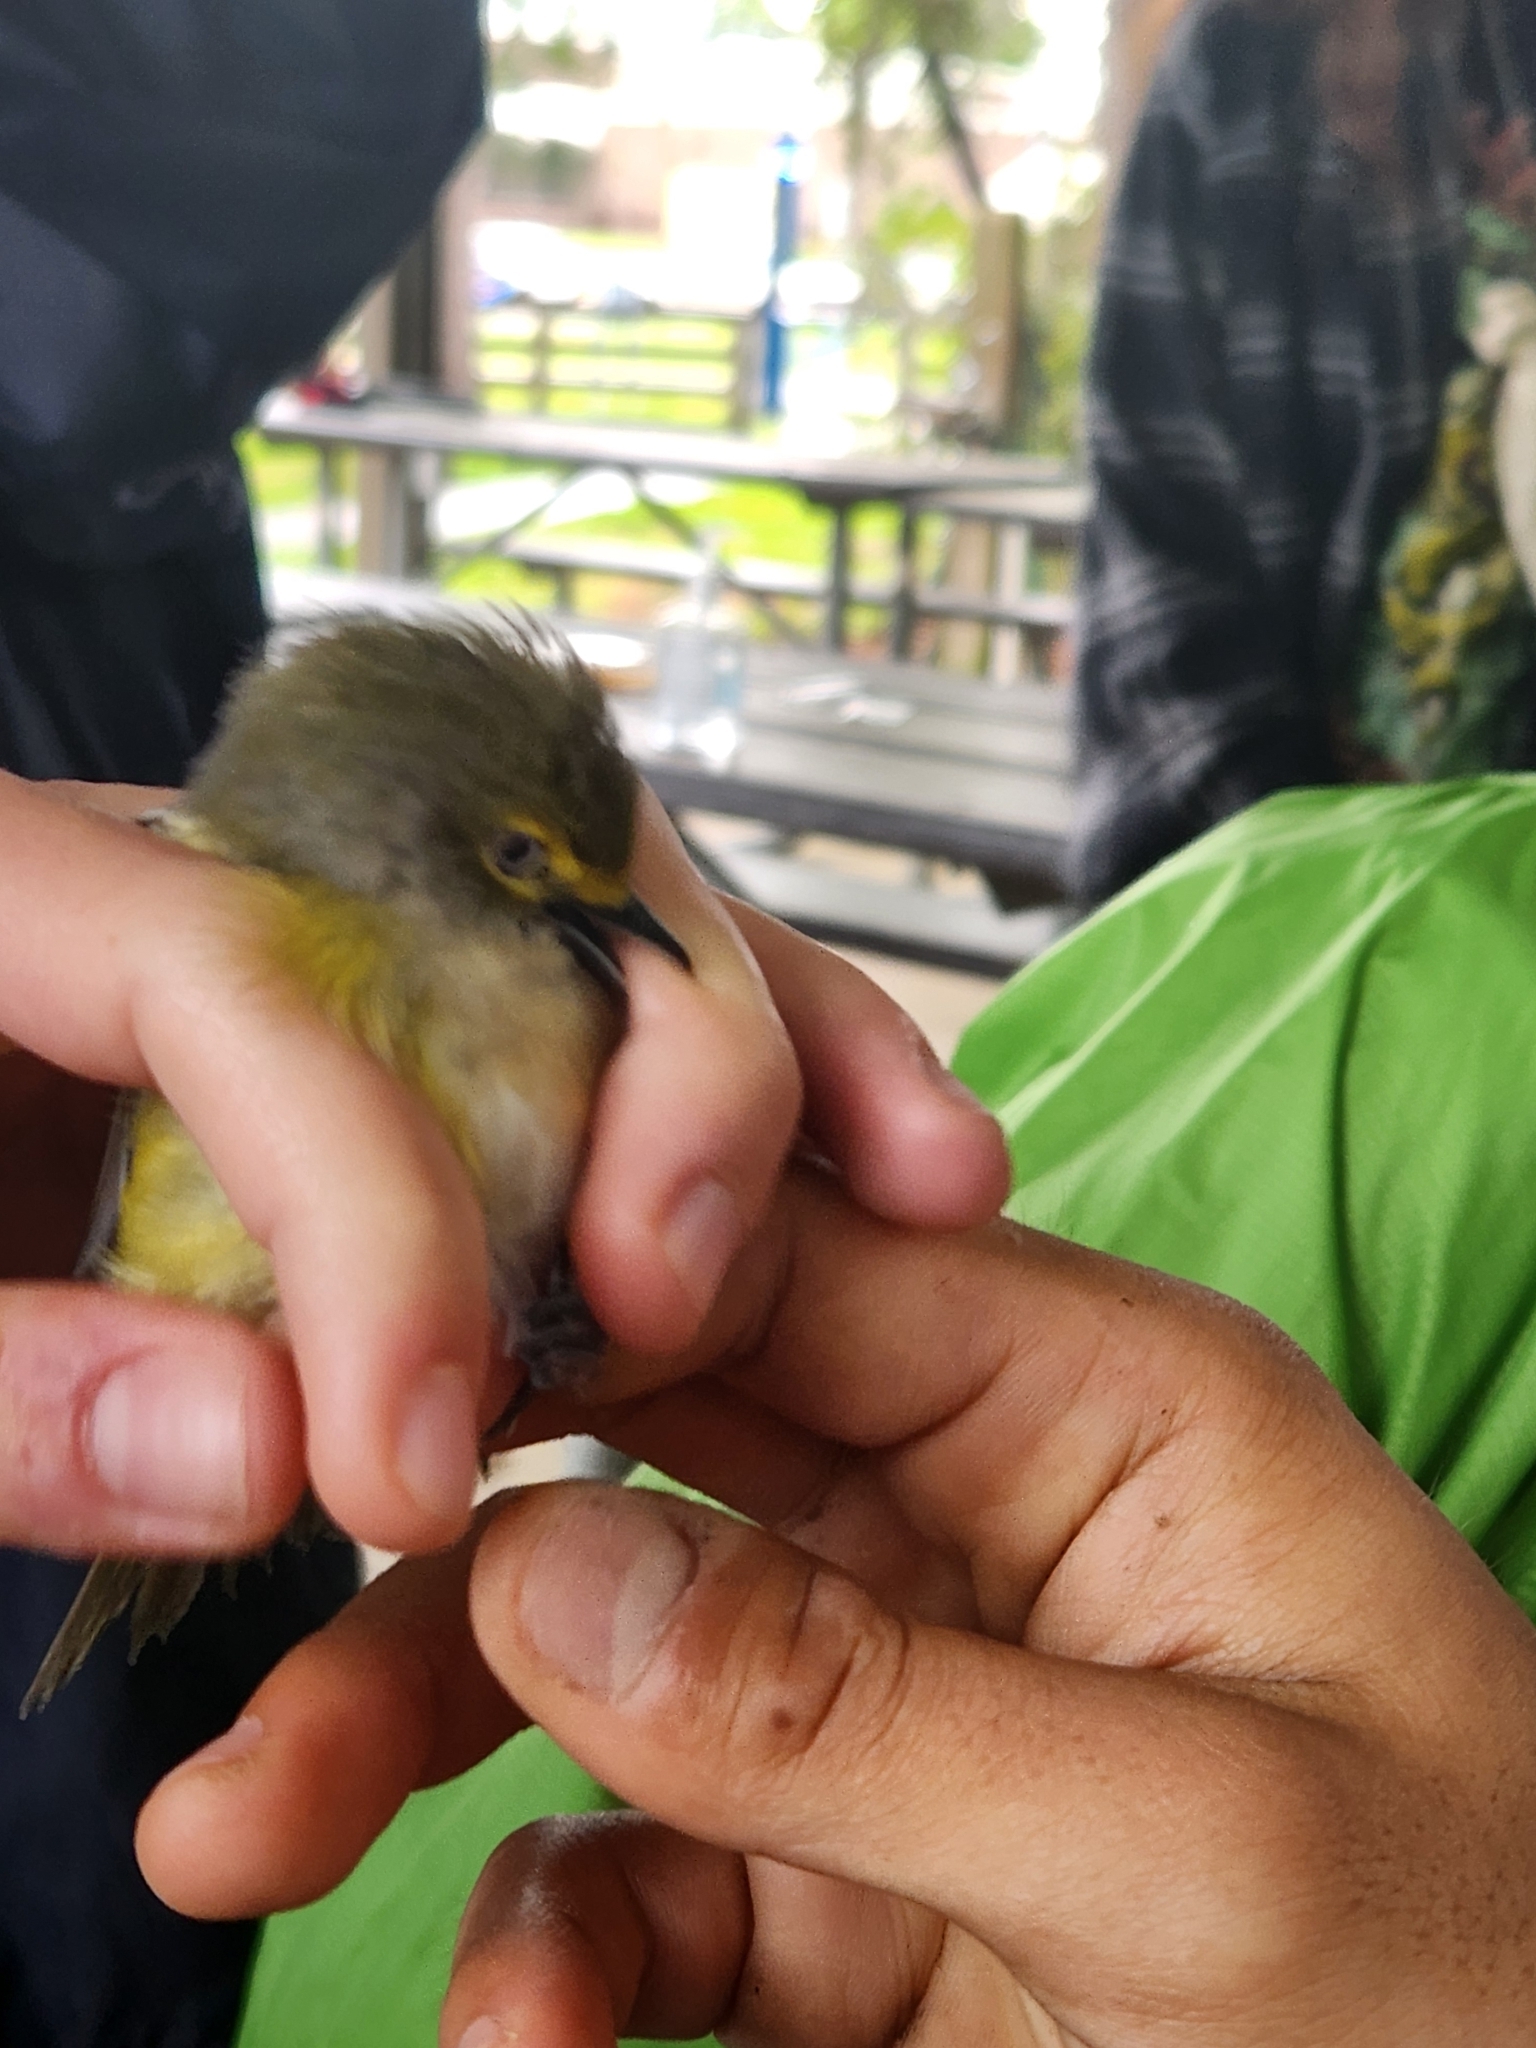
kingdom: Animalia
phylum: Chordata
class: Aves
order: Passeriformes
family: Vireonidae
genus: Vireo
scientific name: Vireo griseus
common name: White-eyed vireo
